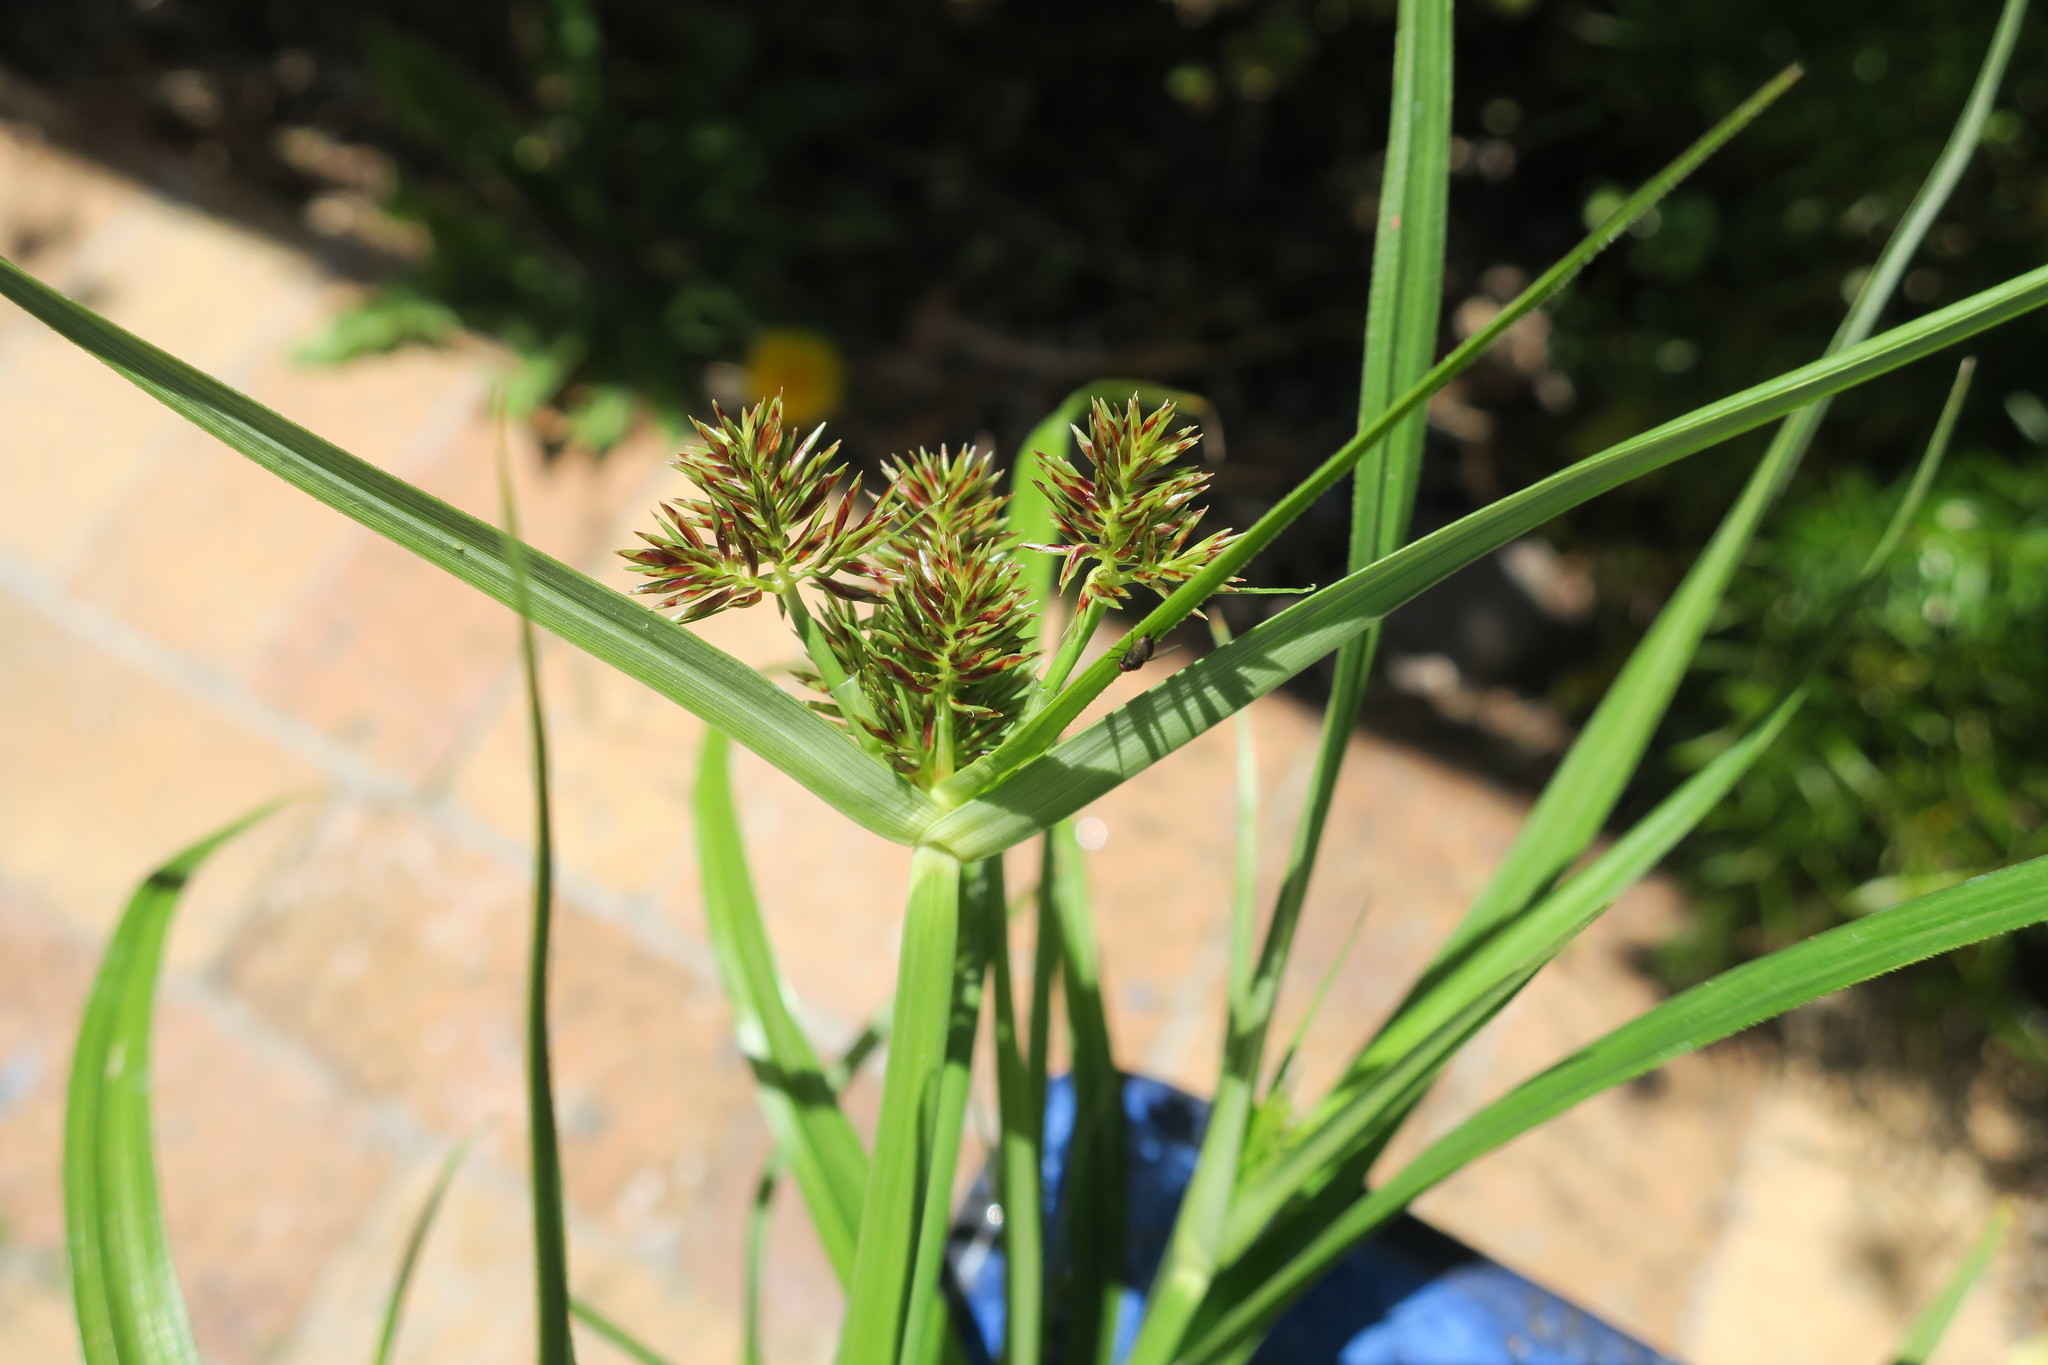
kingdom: Plantae
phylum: Tracheophyta
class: Liliopsida
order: Poales
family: Cyperaceae
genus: Cyperus
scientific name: Cyperus congestus
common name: Dense flat sedge
